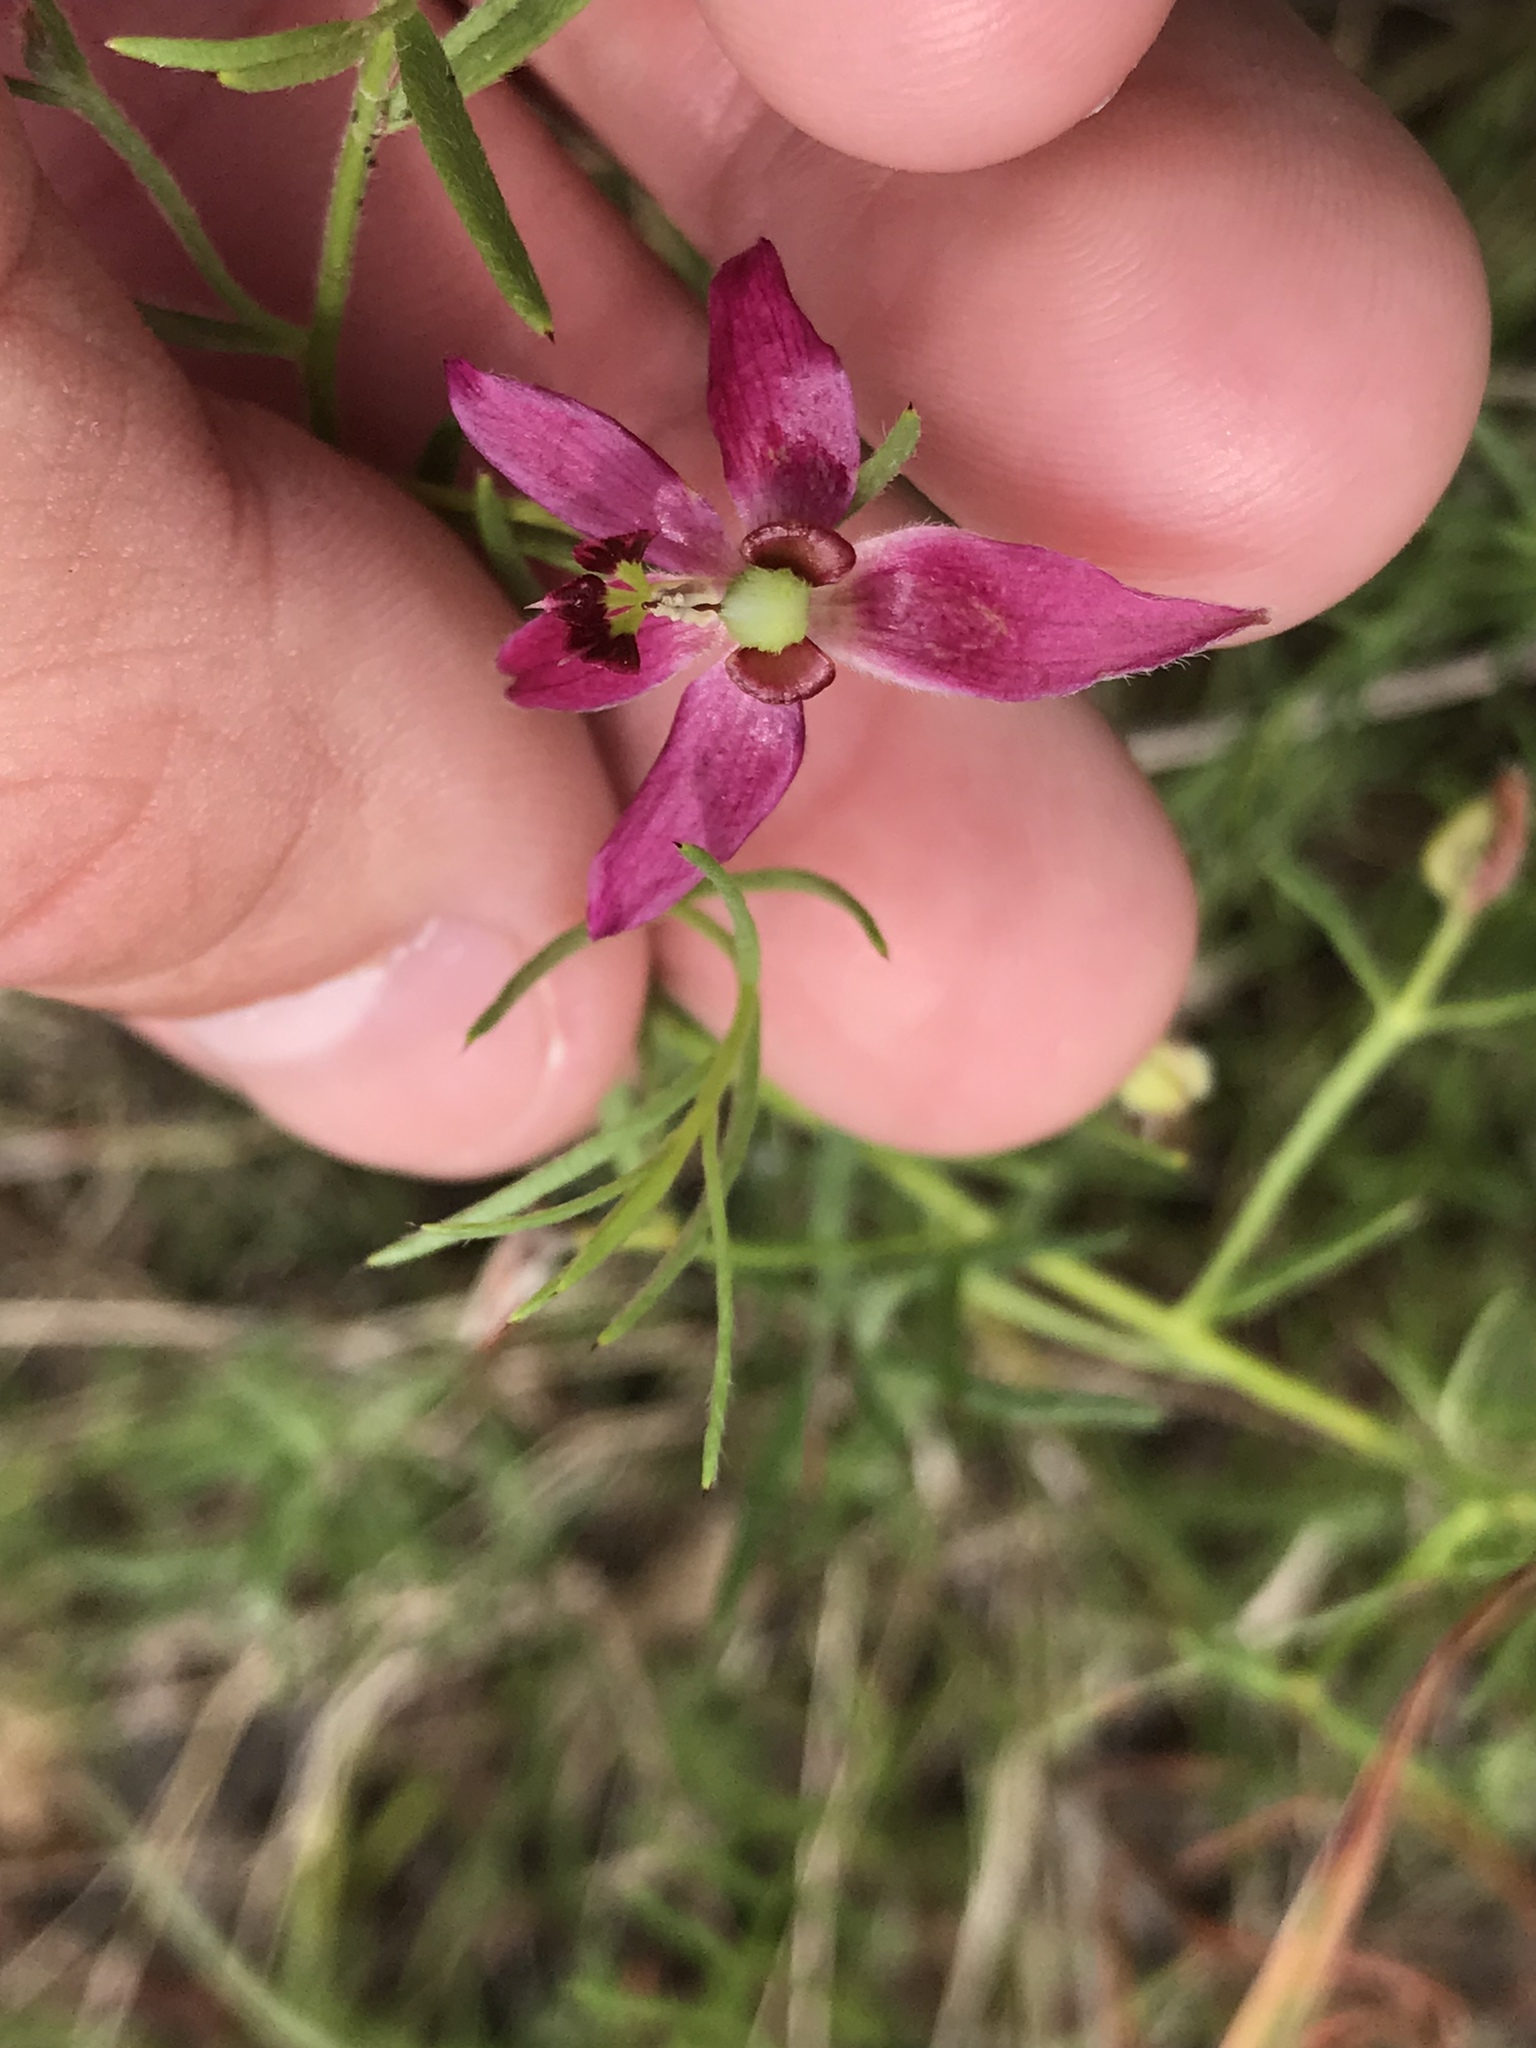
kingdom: Plantae
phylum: Tracheophyta
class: Magnoliopsida
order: Zygophyllales
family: Krameriaceae
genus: Krameria
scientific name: Krameria lanceolata
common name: Ratany
